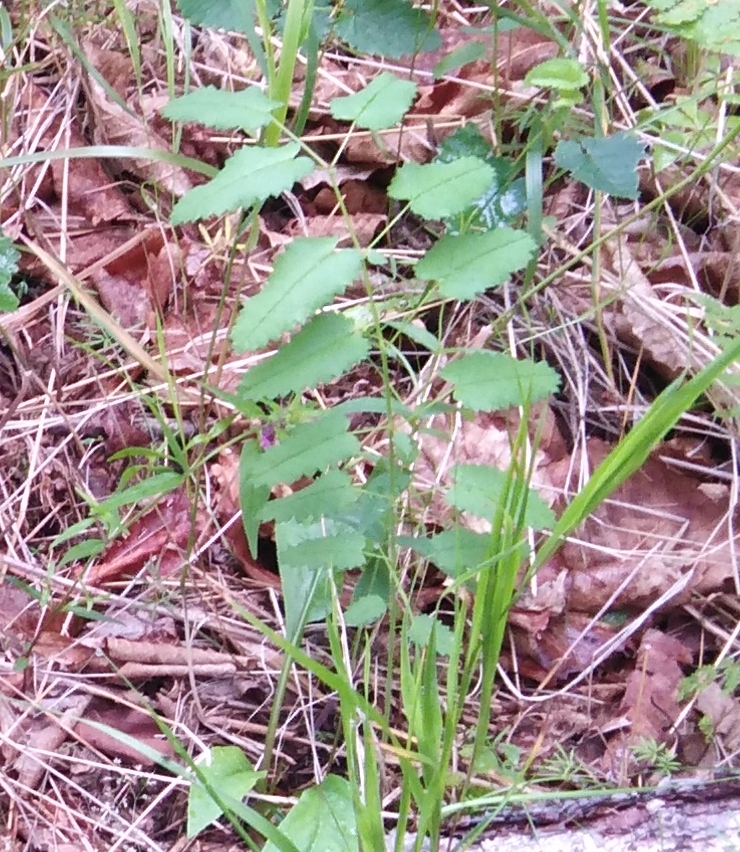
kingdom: Plantae
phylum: Tracheophyta
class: Magnoliopsida
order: Rosales
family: Rosaceae
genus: Sanguisorba
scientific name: Sanguisorba officinalis
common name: Great burnet
